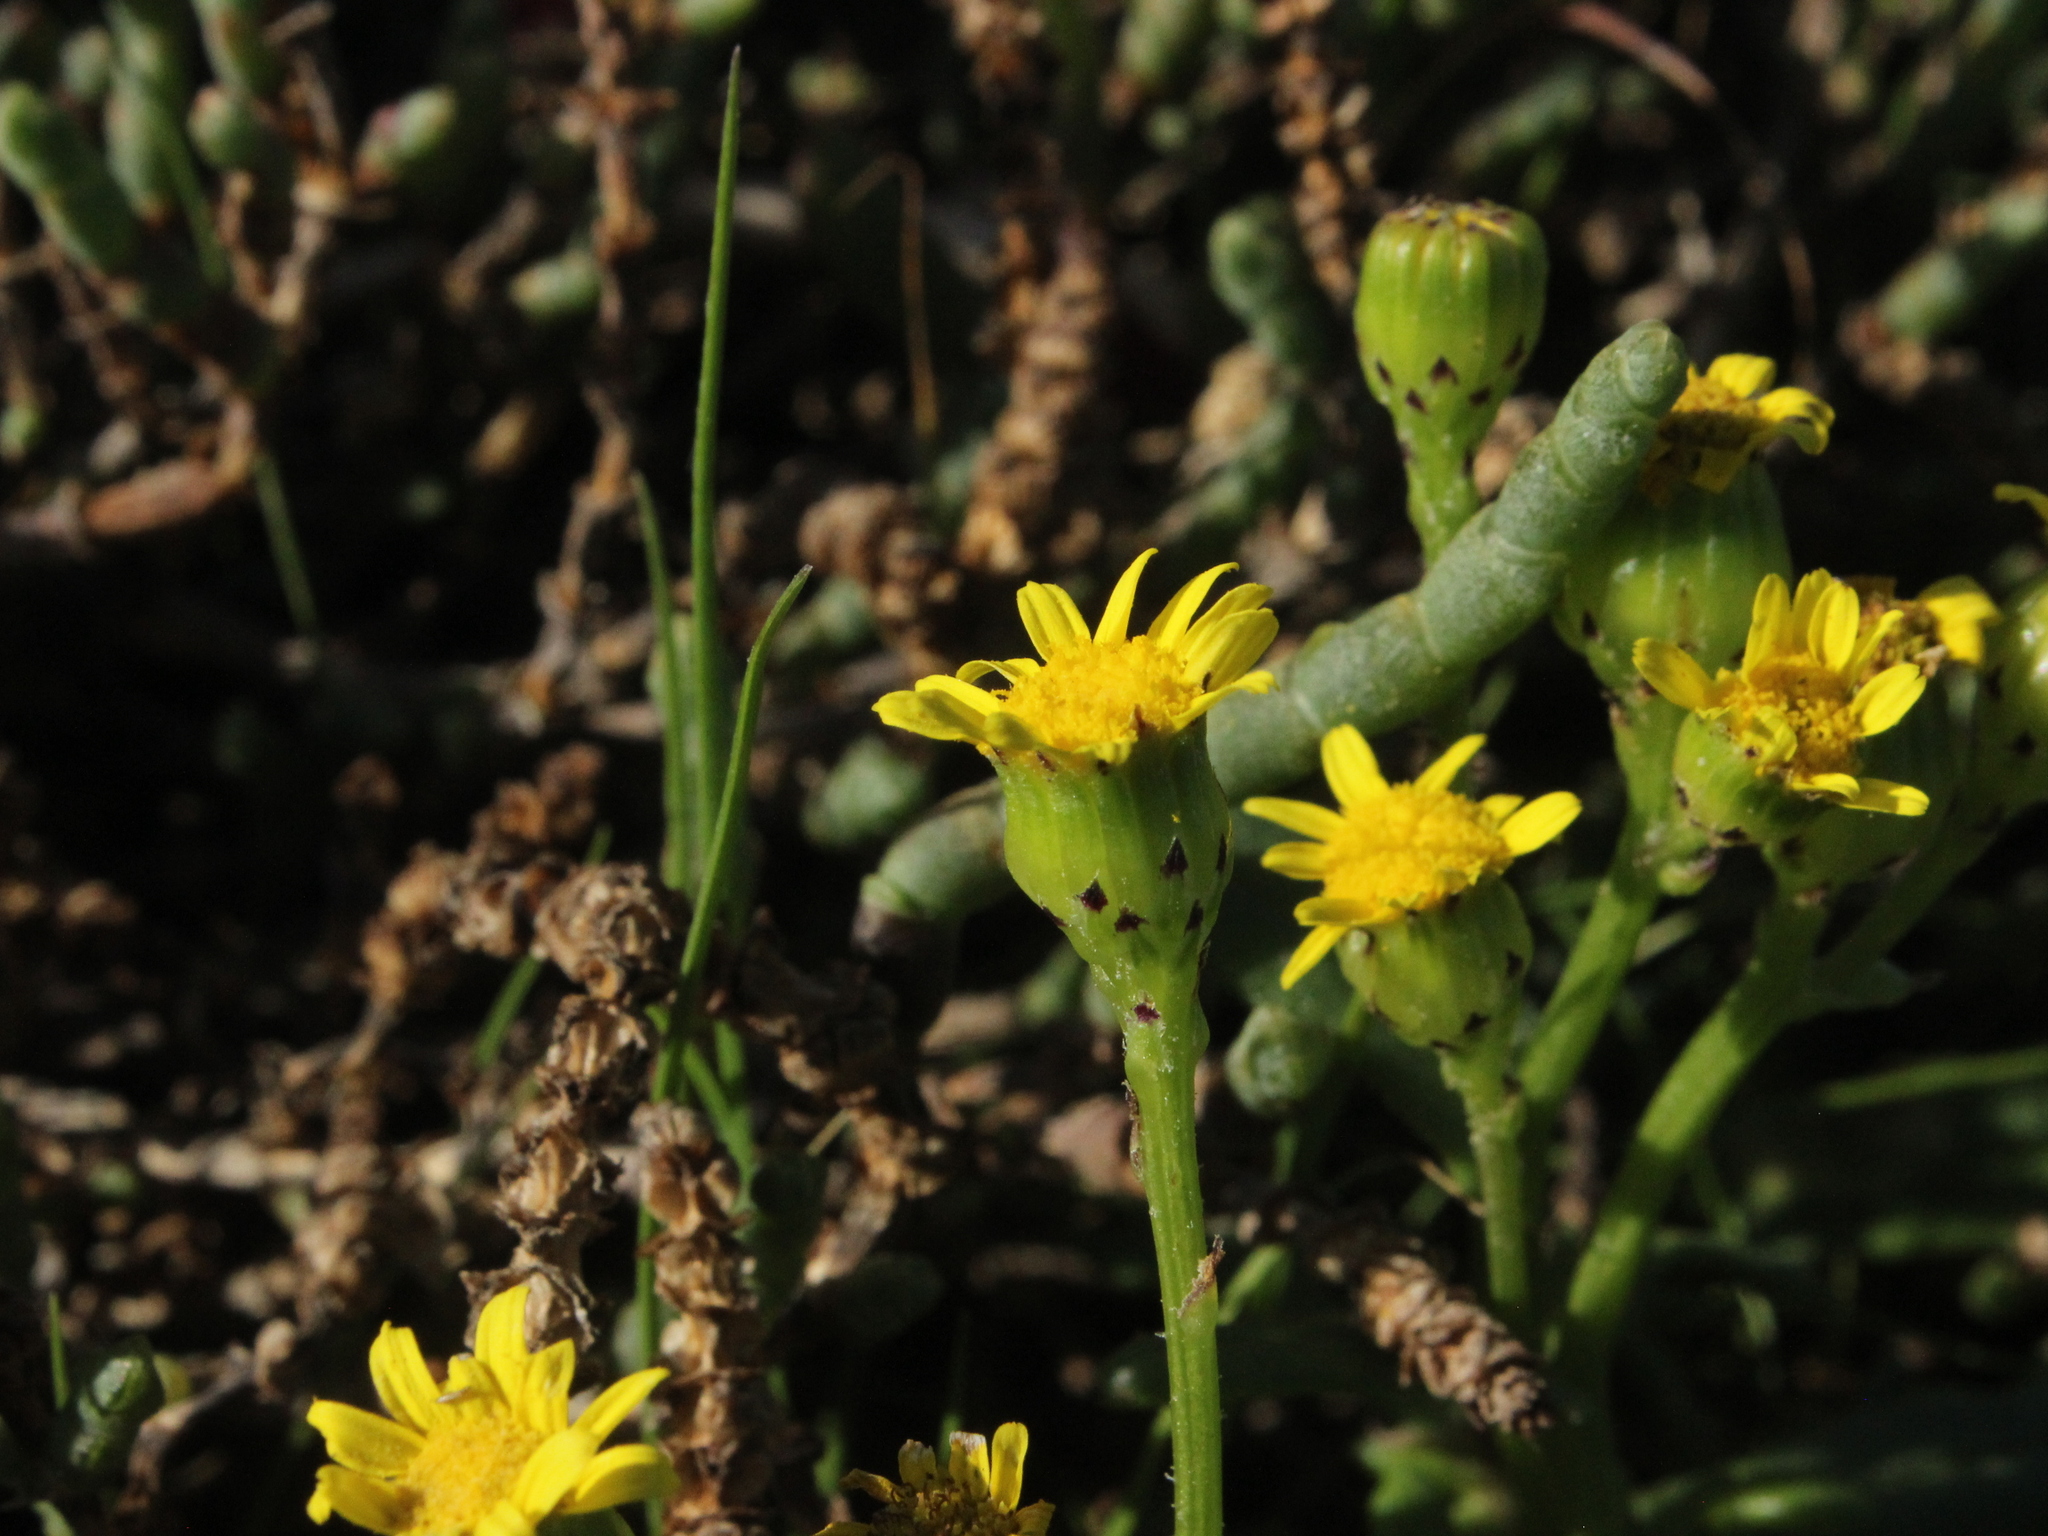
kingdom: Plantae
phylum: Tracheophyta
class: Magnoliopsida
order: Asterales
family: Asteraceae
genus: Senecio
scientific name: Senecio lautus
